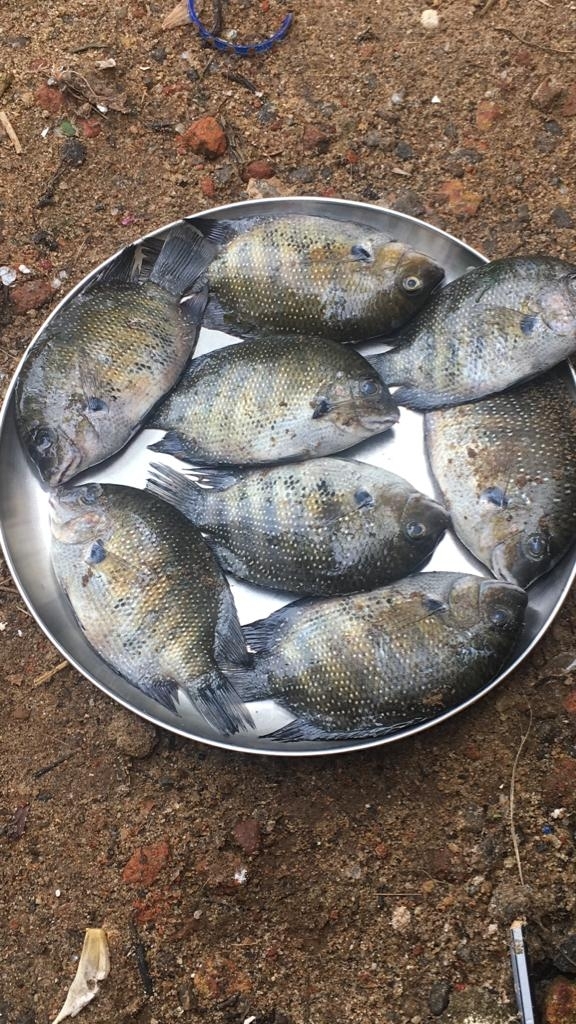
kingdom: Animalia
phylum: Chordata
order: Perciformes
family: Cichlidae
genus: Etroplus
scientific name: Etroplus suratensis
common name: Green chromide
